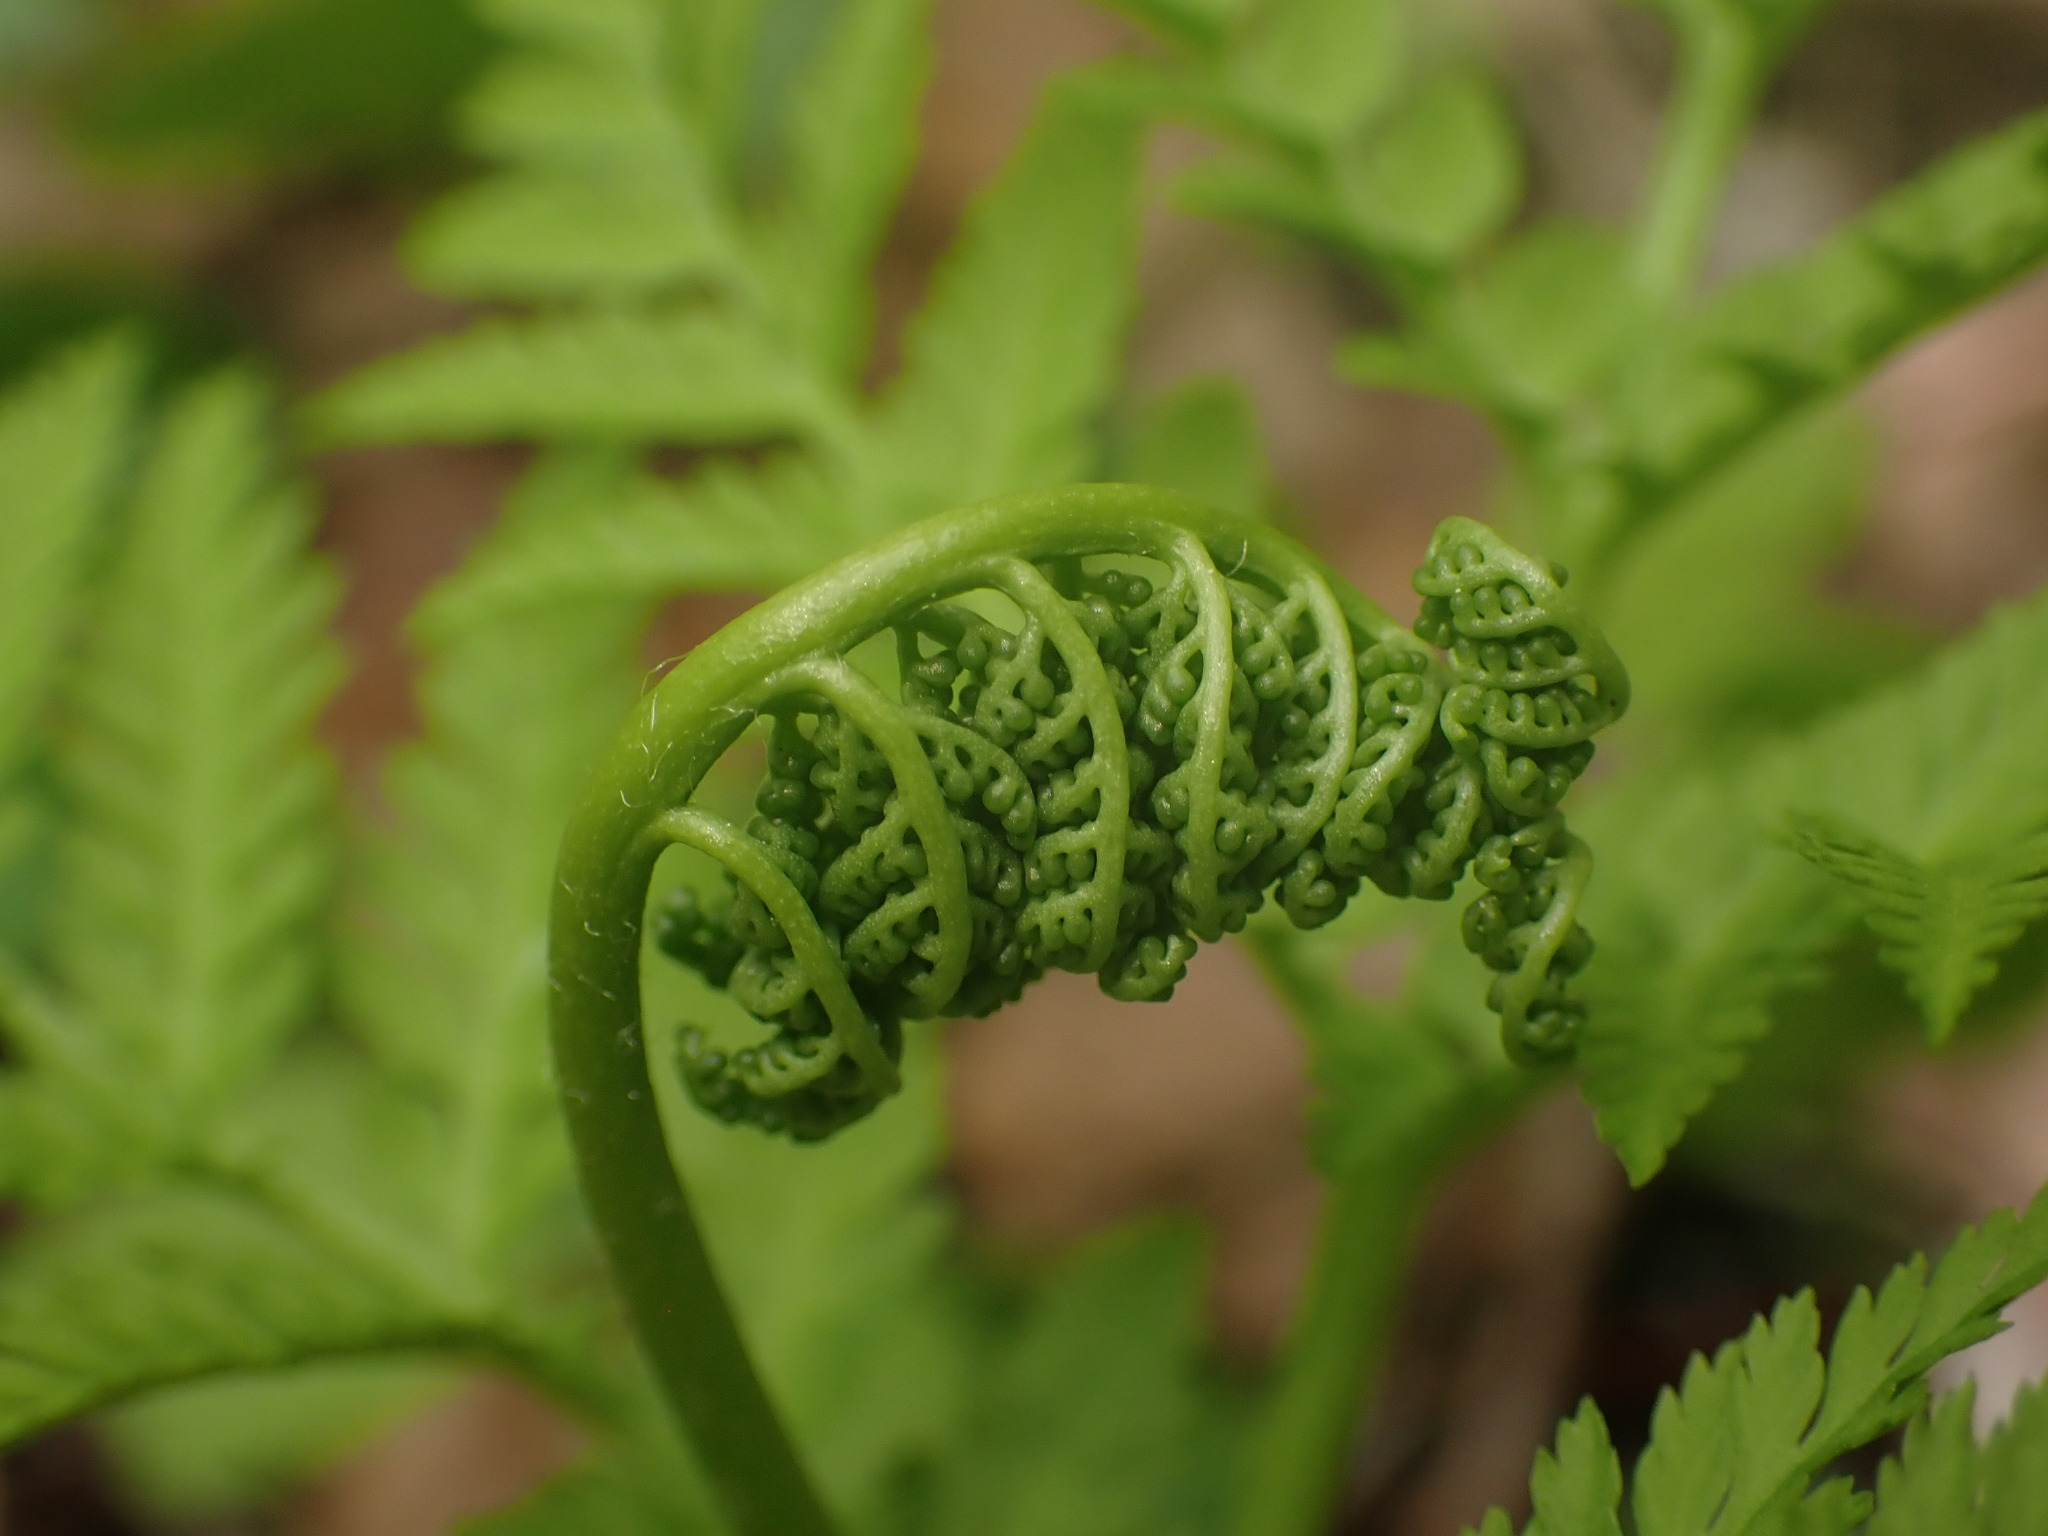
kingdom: Plantae
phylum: Tracheophyta
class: Polypodiopsida
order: Ophioglossales
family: Ophioglossaceae
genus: Botrypus
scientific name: Botrypus virginianus
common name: Common grapefern
